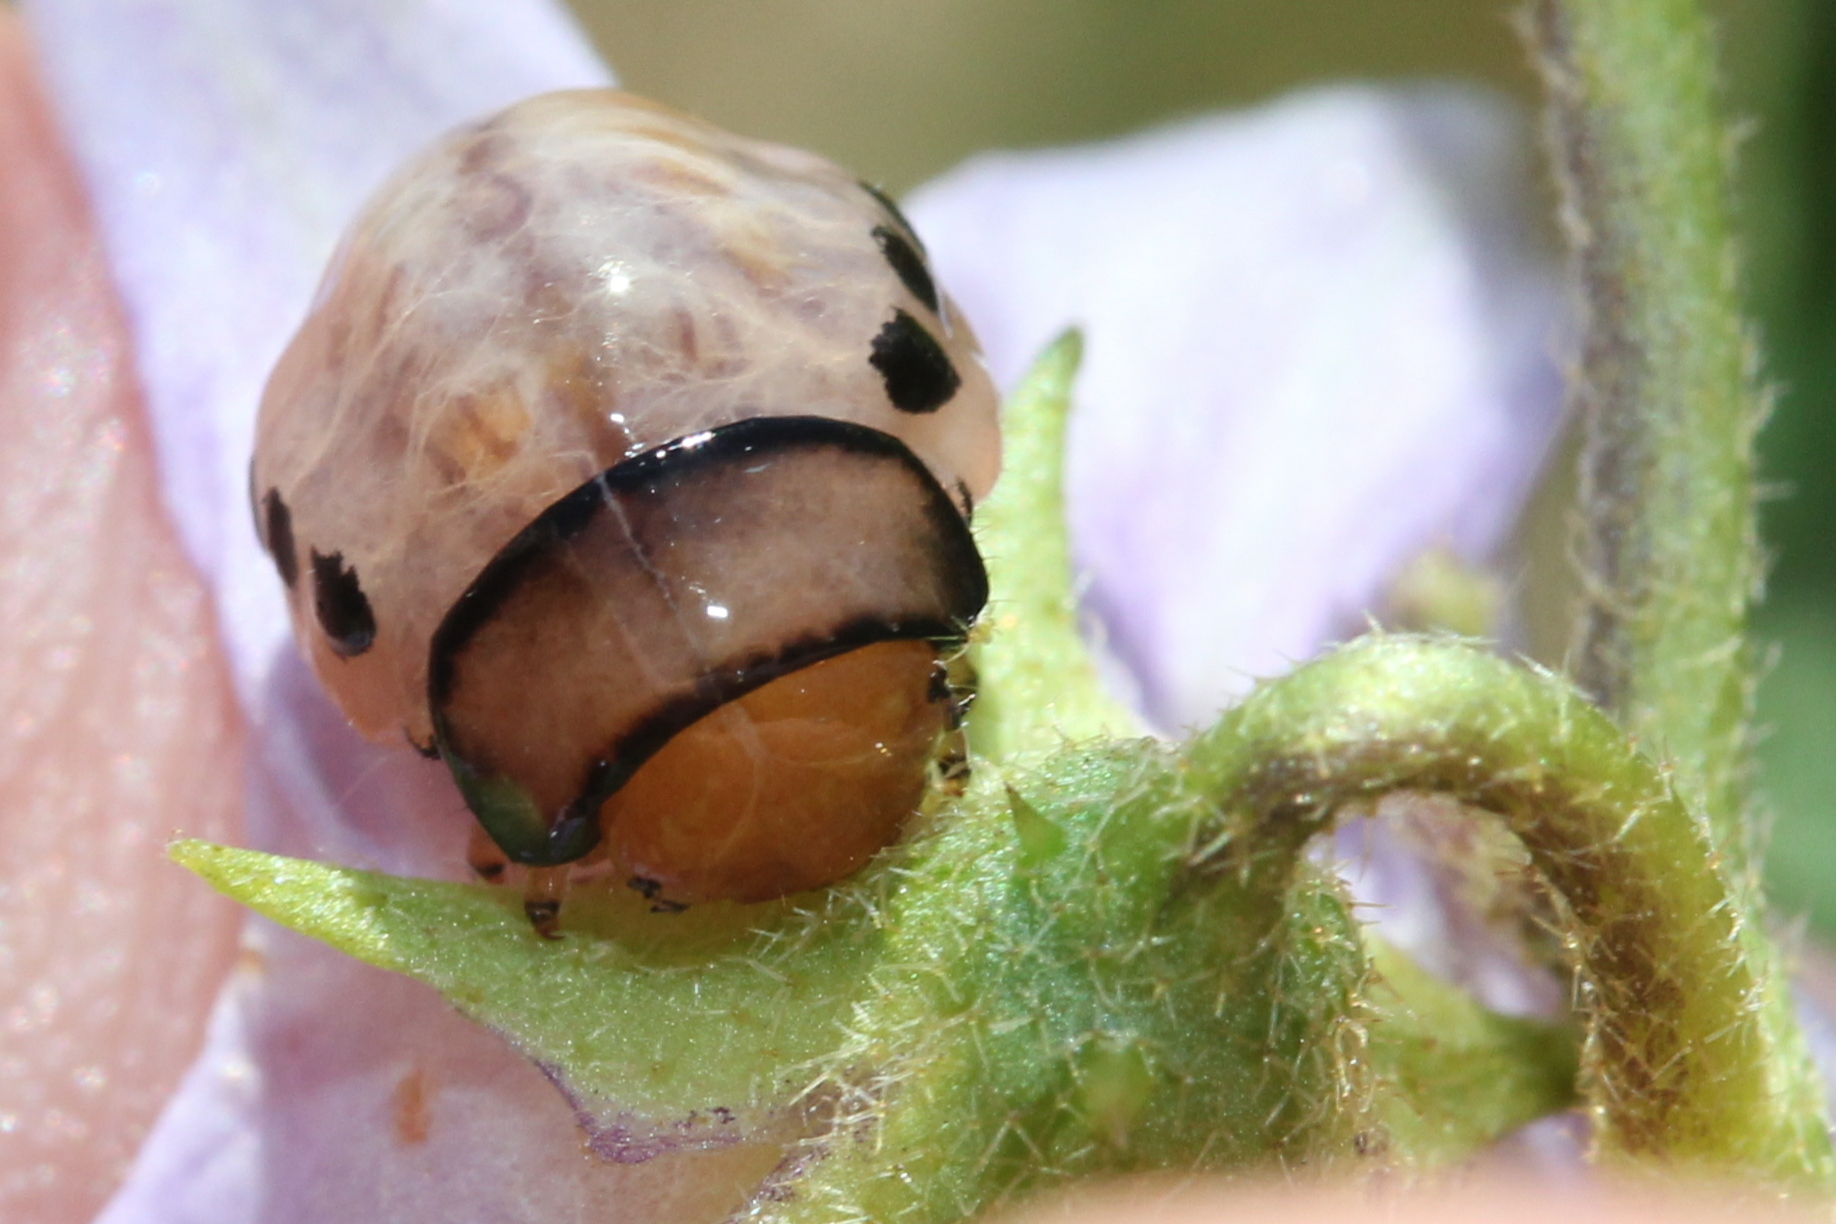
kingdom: Animalia
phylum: Arthropoda
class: Insecta
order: Coleoptera
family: Chrysomelidae
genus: Leptinotarsa
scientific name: Leptinotarsa juncta
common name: False potato beetle
